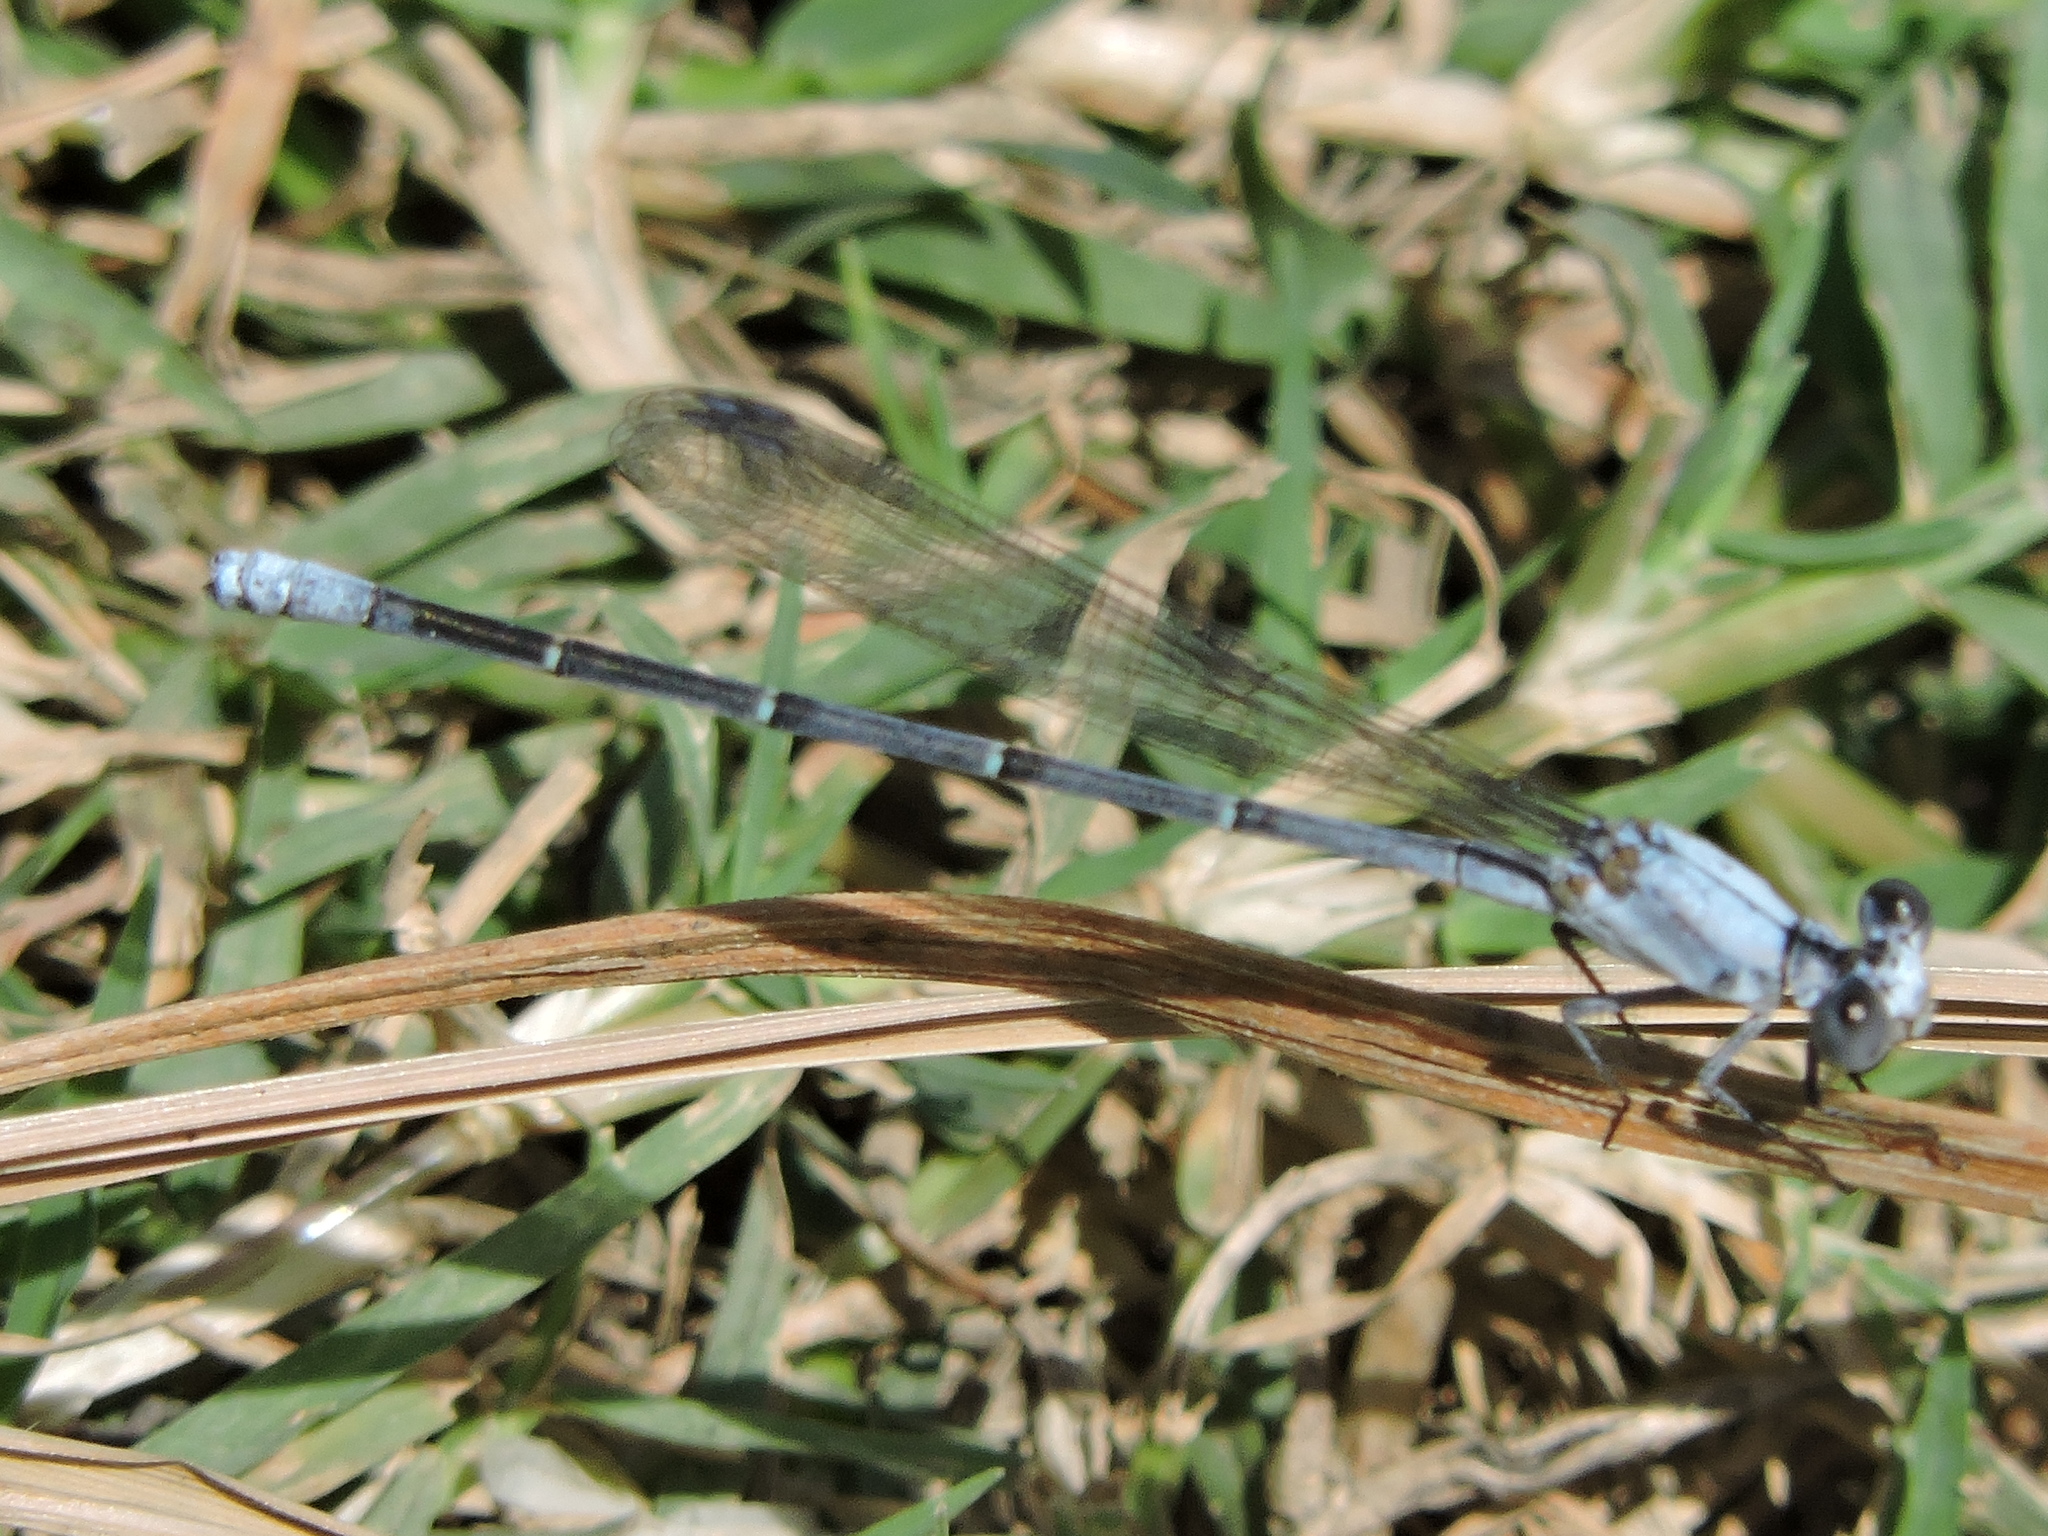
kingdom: Animalia
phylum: Arthropoda
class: Insecta
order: Odonata
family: Coenagrionidae
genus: Argia
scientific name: Argia moesta
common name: Powdered dancer
